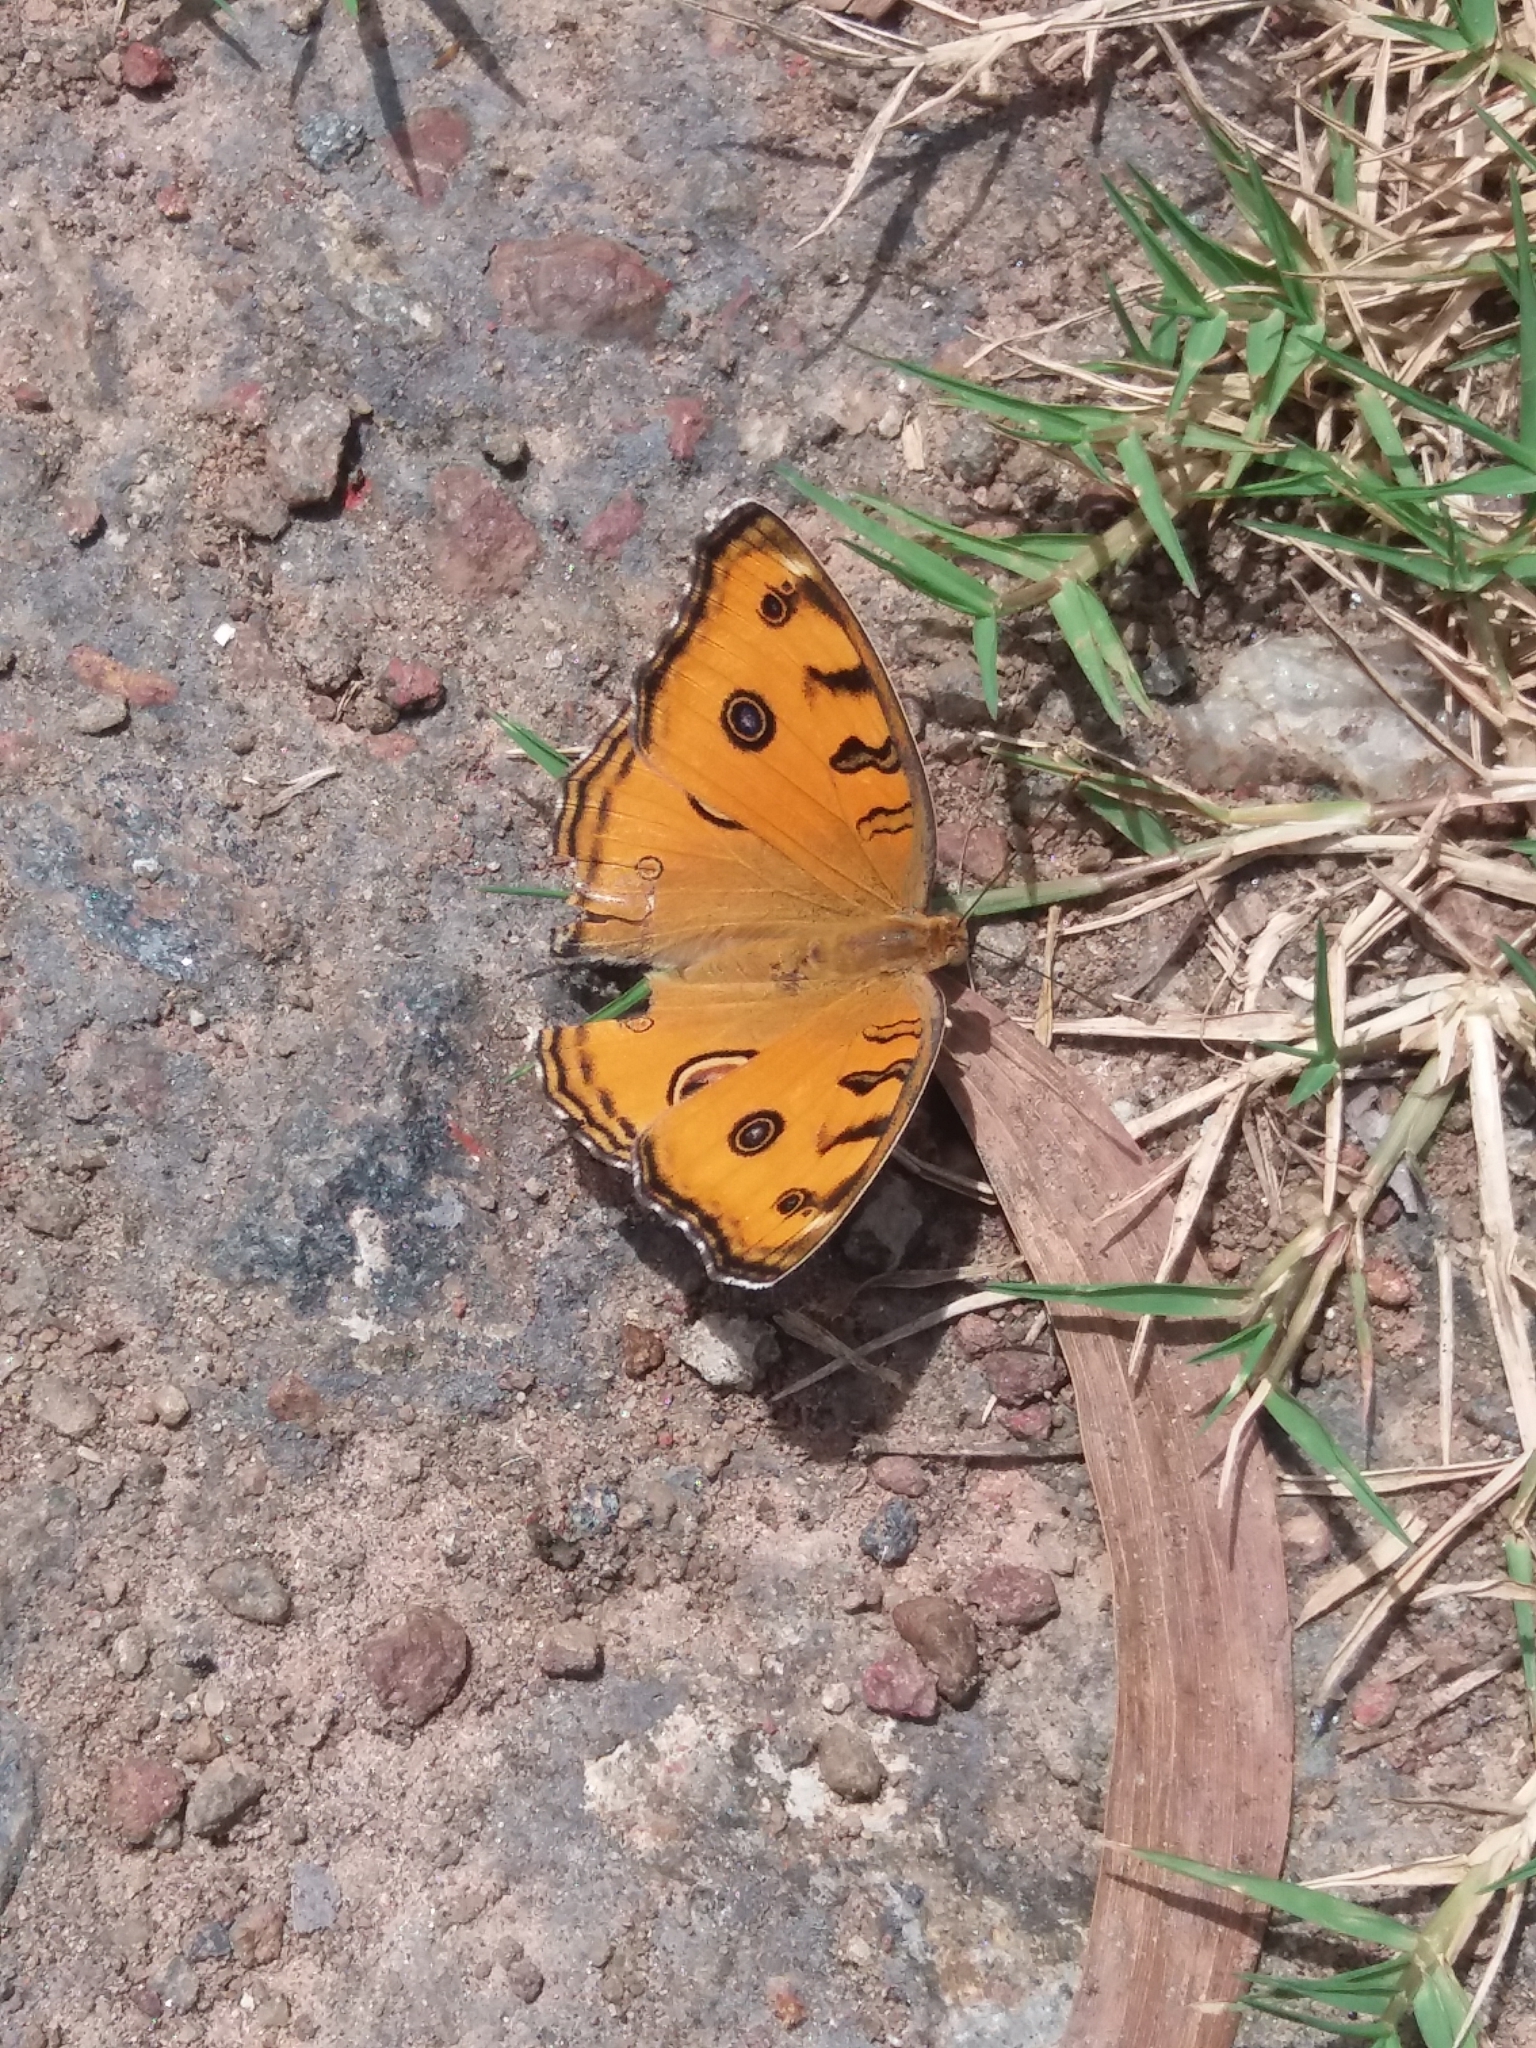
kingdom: Animalia
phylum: Arthropoda
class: Insecta
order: Lepidoptera
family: Nymphalidae
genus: Junonia
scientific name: Junonia almana
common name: Peacock pansy
